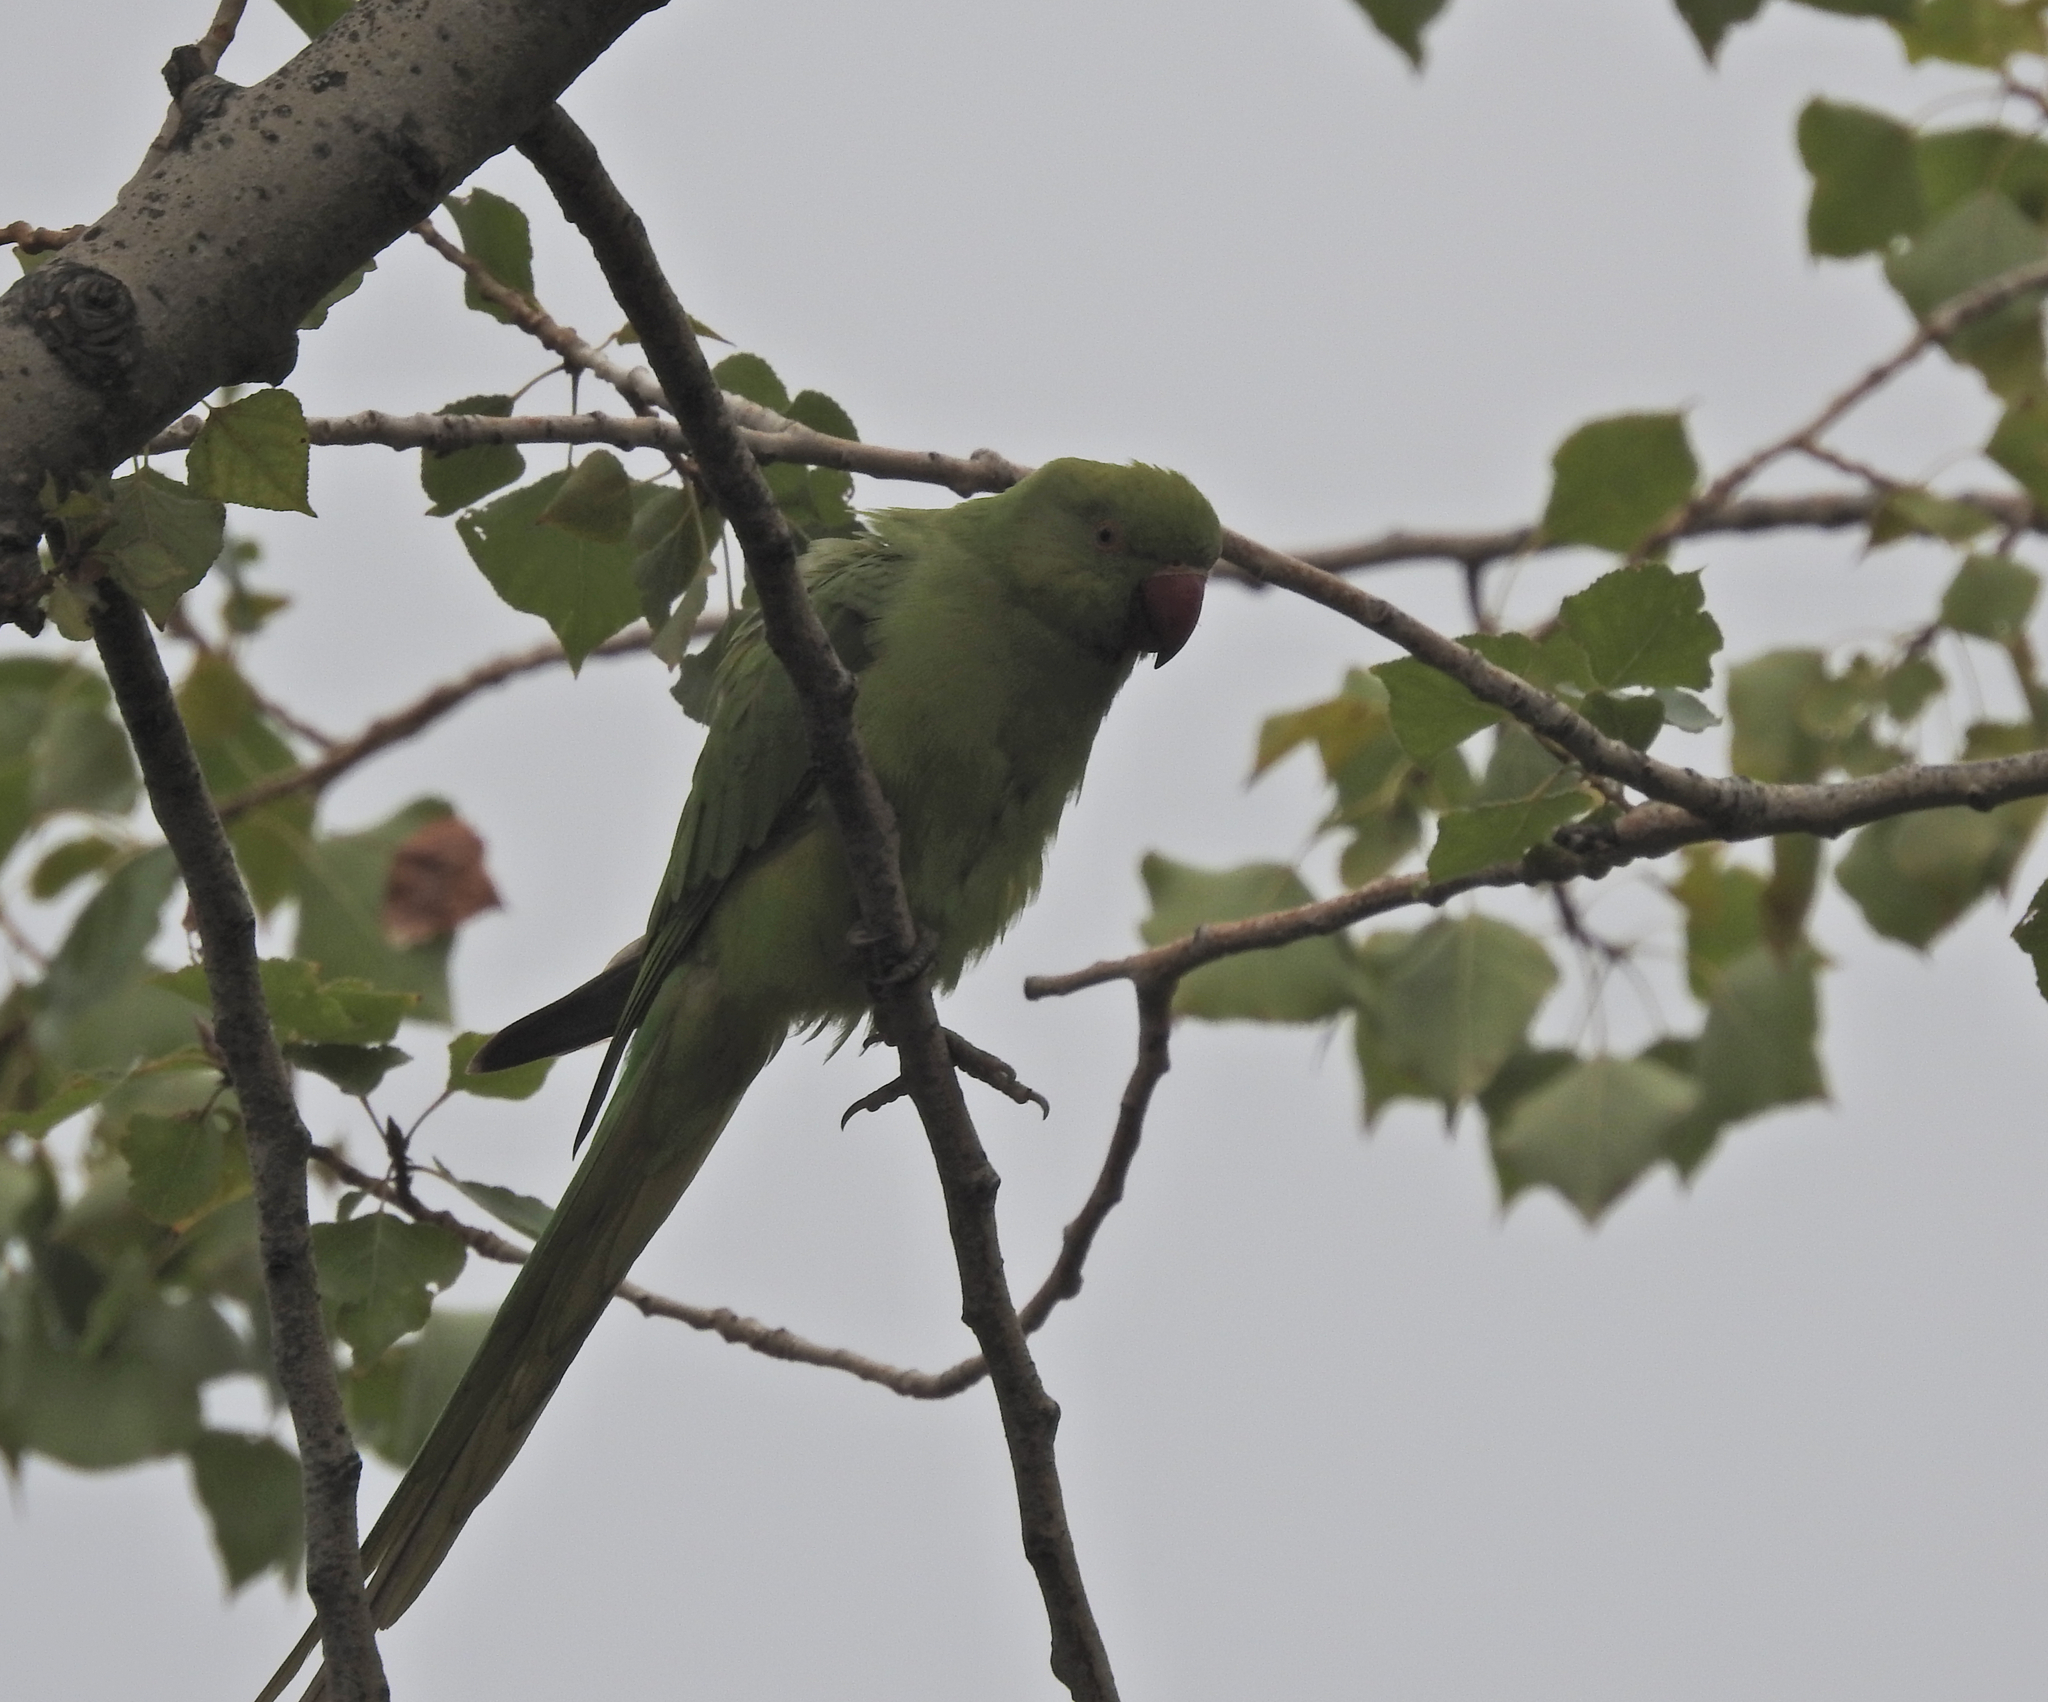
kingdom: Animalia
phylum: Chordata
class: Aves
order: Psittaciformes
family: Psittacidae
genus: Psittacula
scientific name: Psittacula krameri
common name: Rose-ringed parakeet
